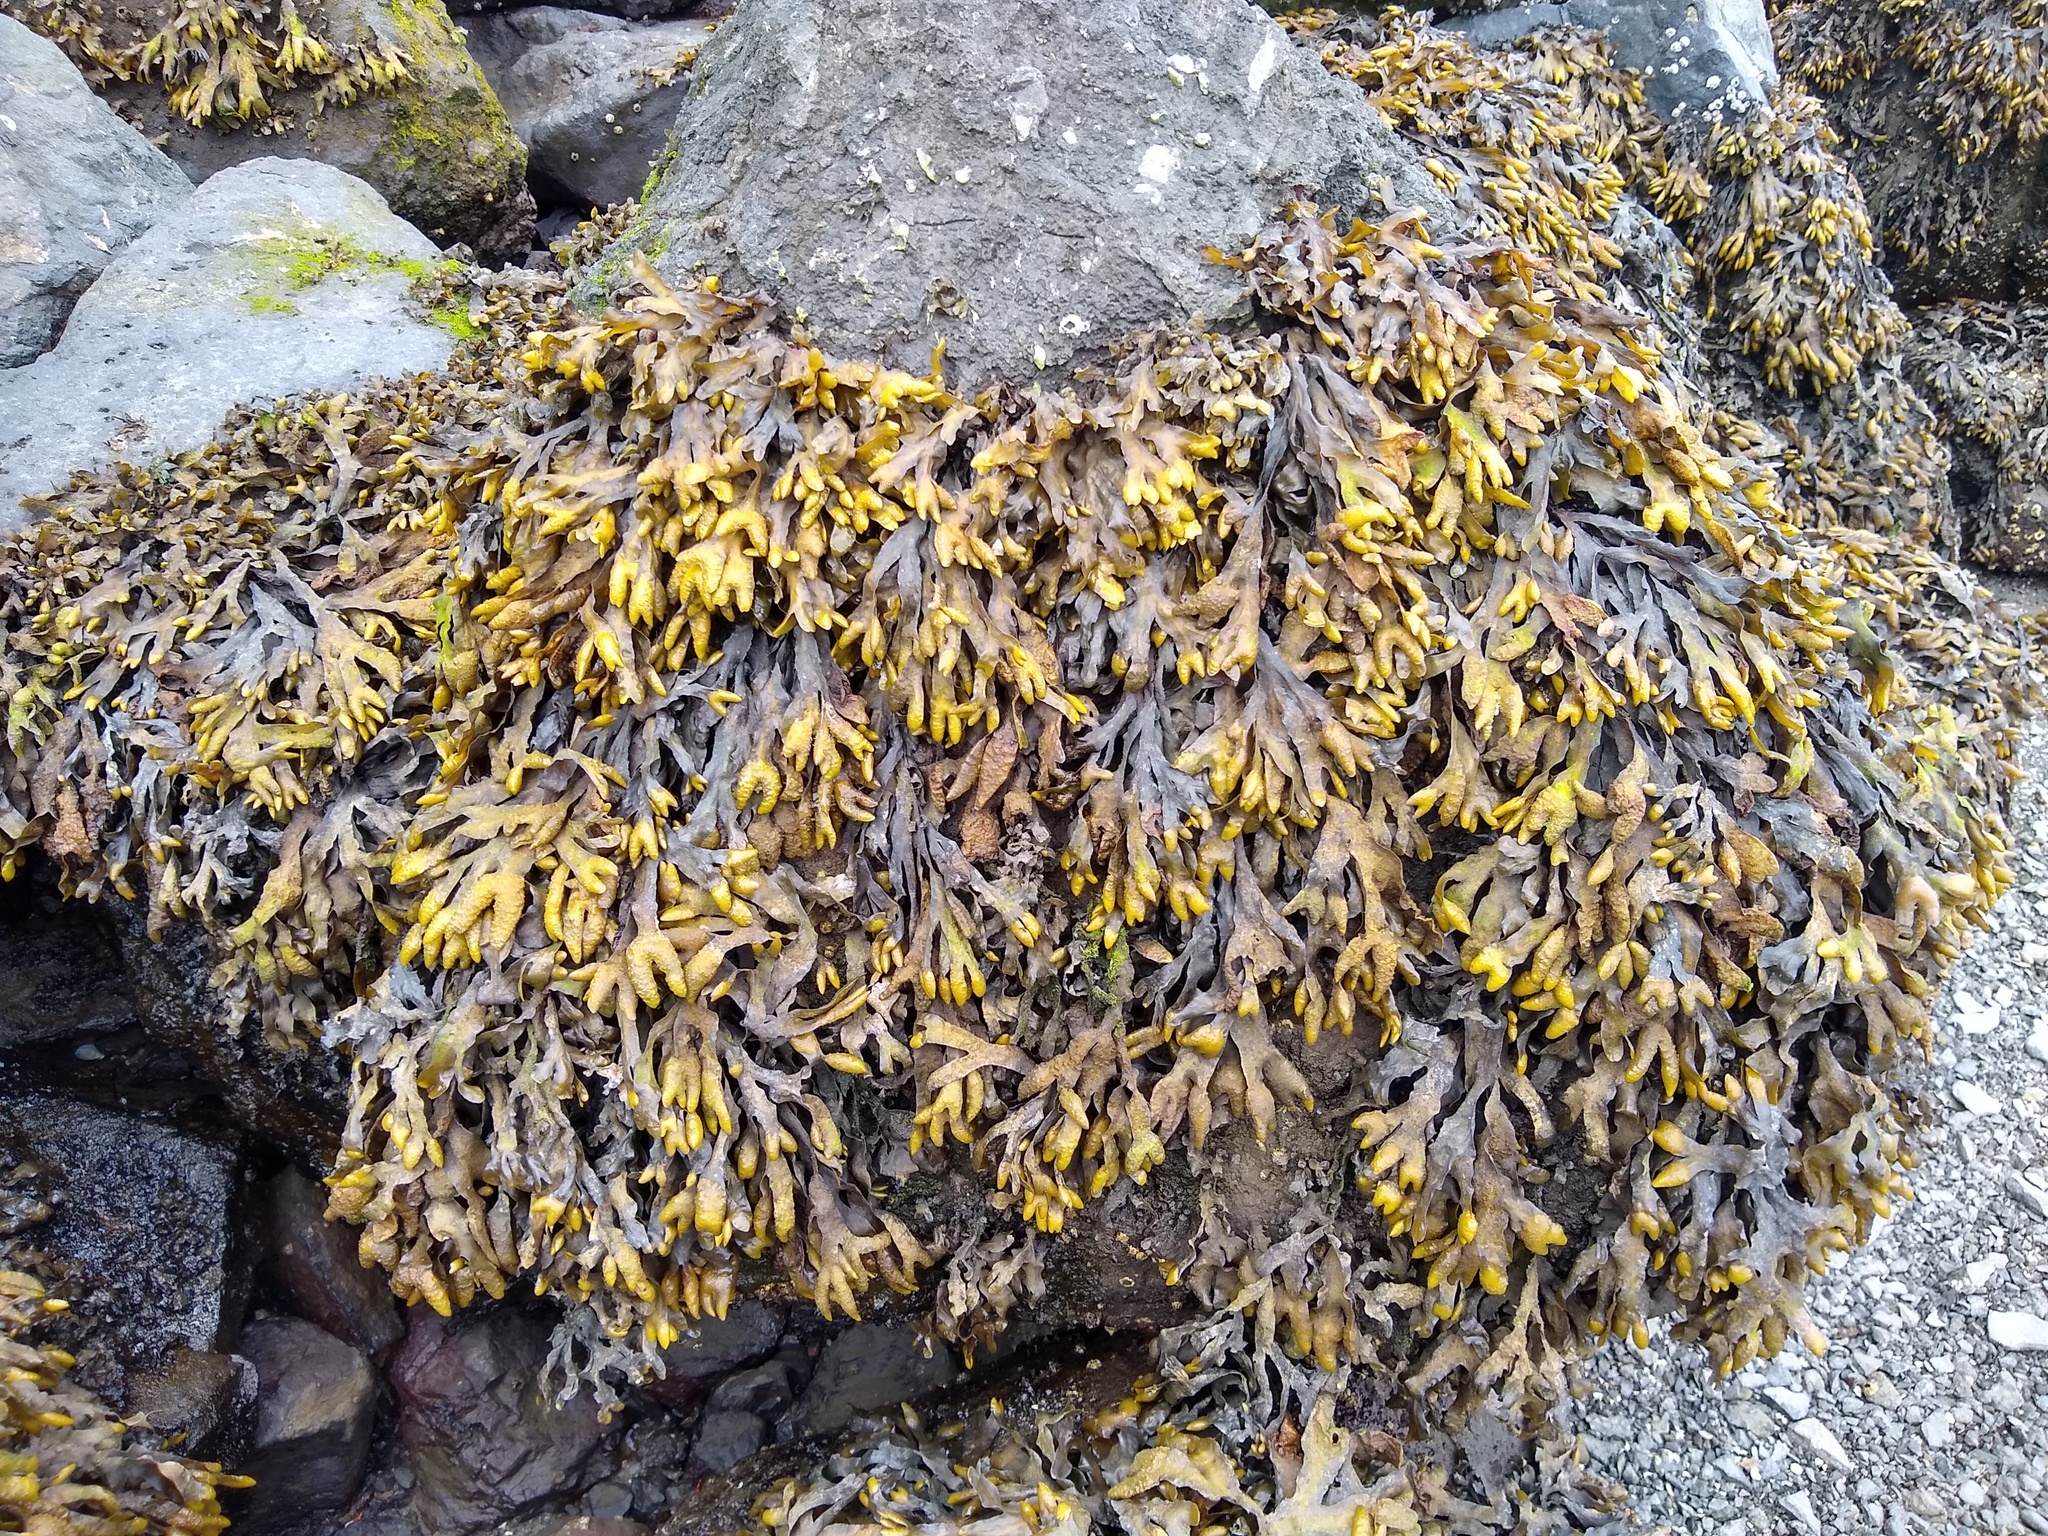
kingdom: Chromista
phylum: Ochrophyta
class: Phaeophyceae
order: Fucales
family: Fucaceae
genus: Fucus
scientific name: Fucus distichus
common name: Rockweed
